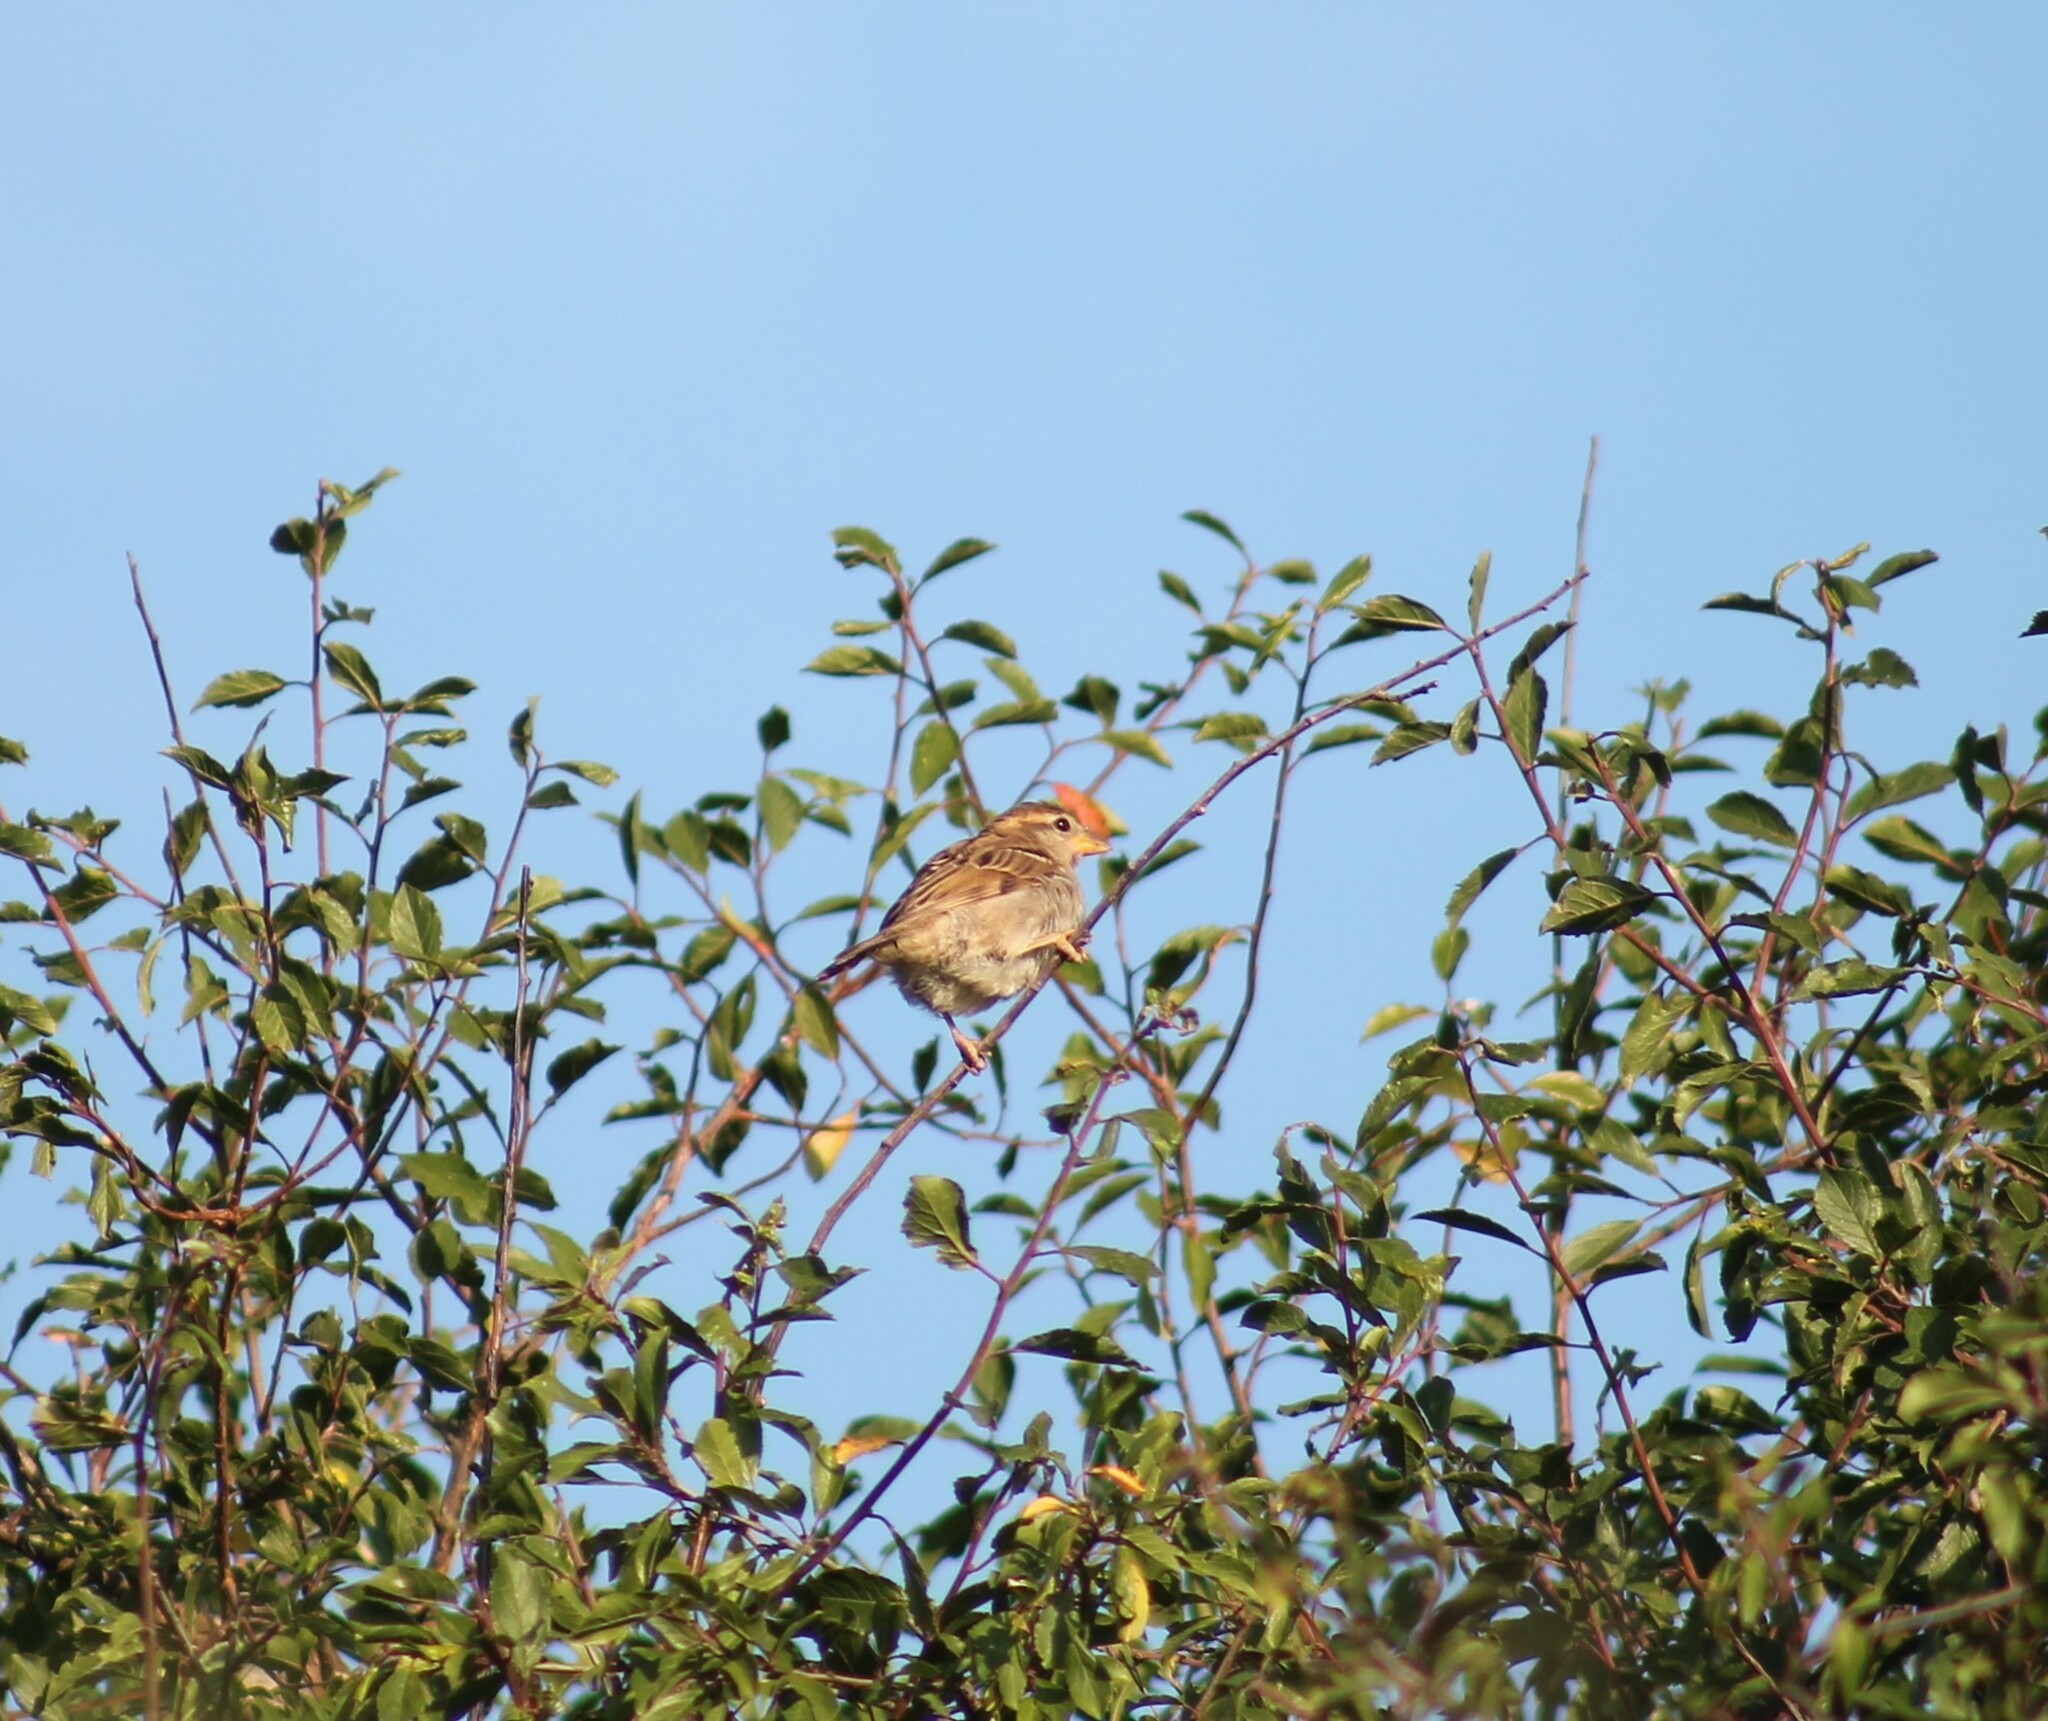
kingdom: Animalia
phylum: Chordata
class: Aves
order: Passeriformes
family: Passeridae
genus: Passer
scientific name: Passer domesticus
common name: House sparrow
